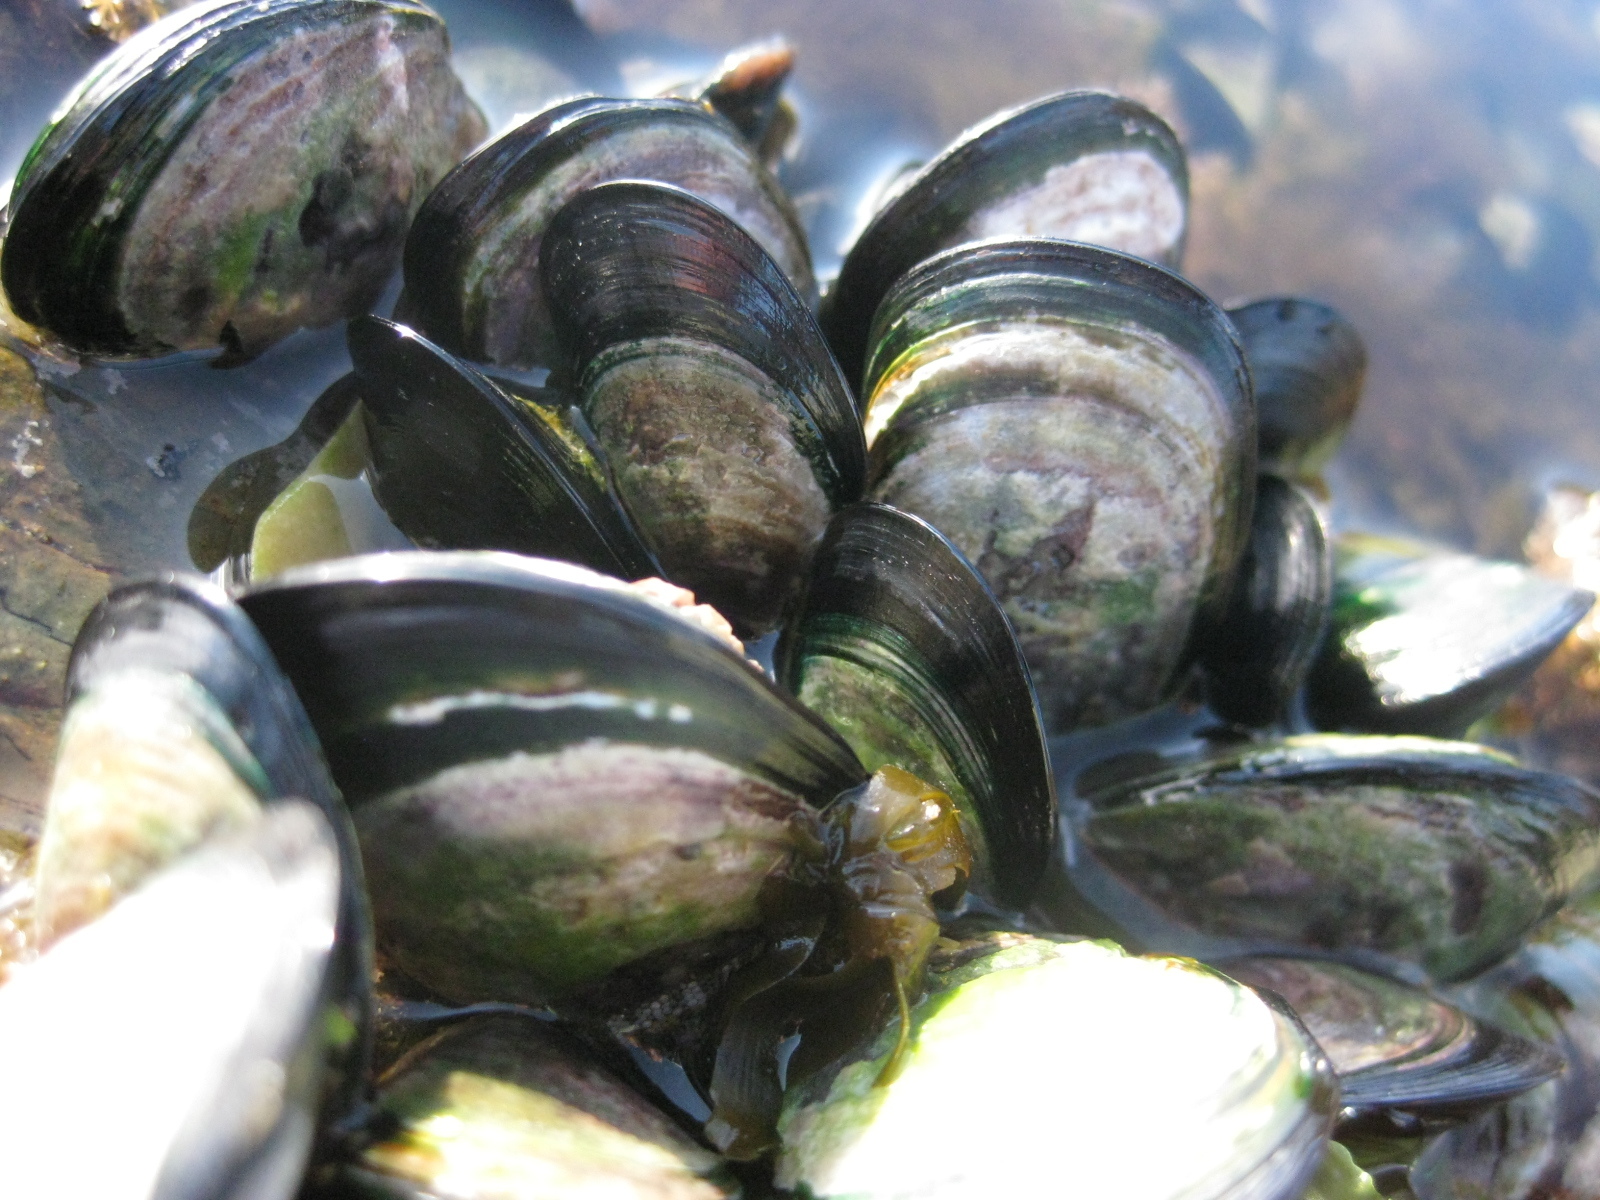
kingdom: Animalia
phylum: Mollusca
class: Bivalvia
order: Mytilida
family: Mytilidae
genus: Perna
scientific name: Perna canaliculus
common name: New zealand greenshelltm
